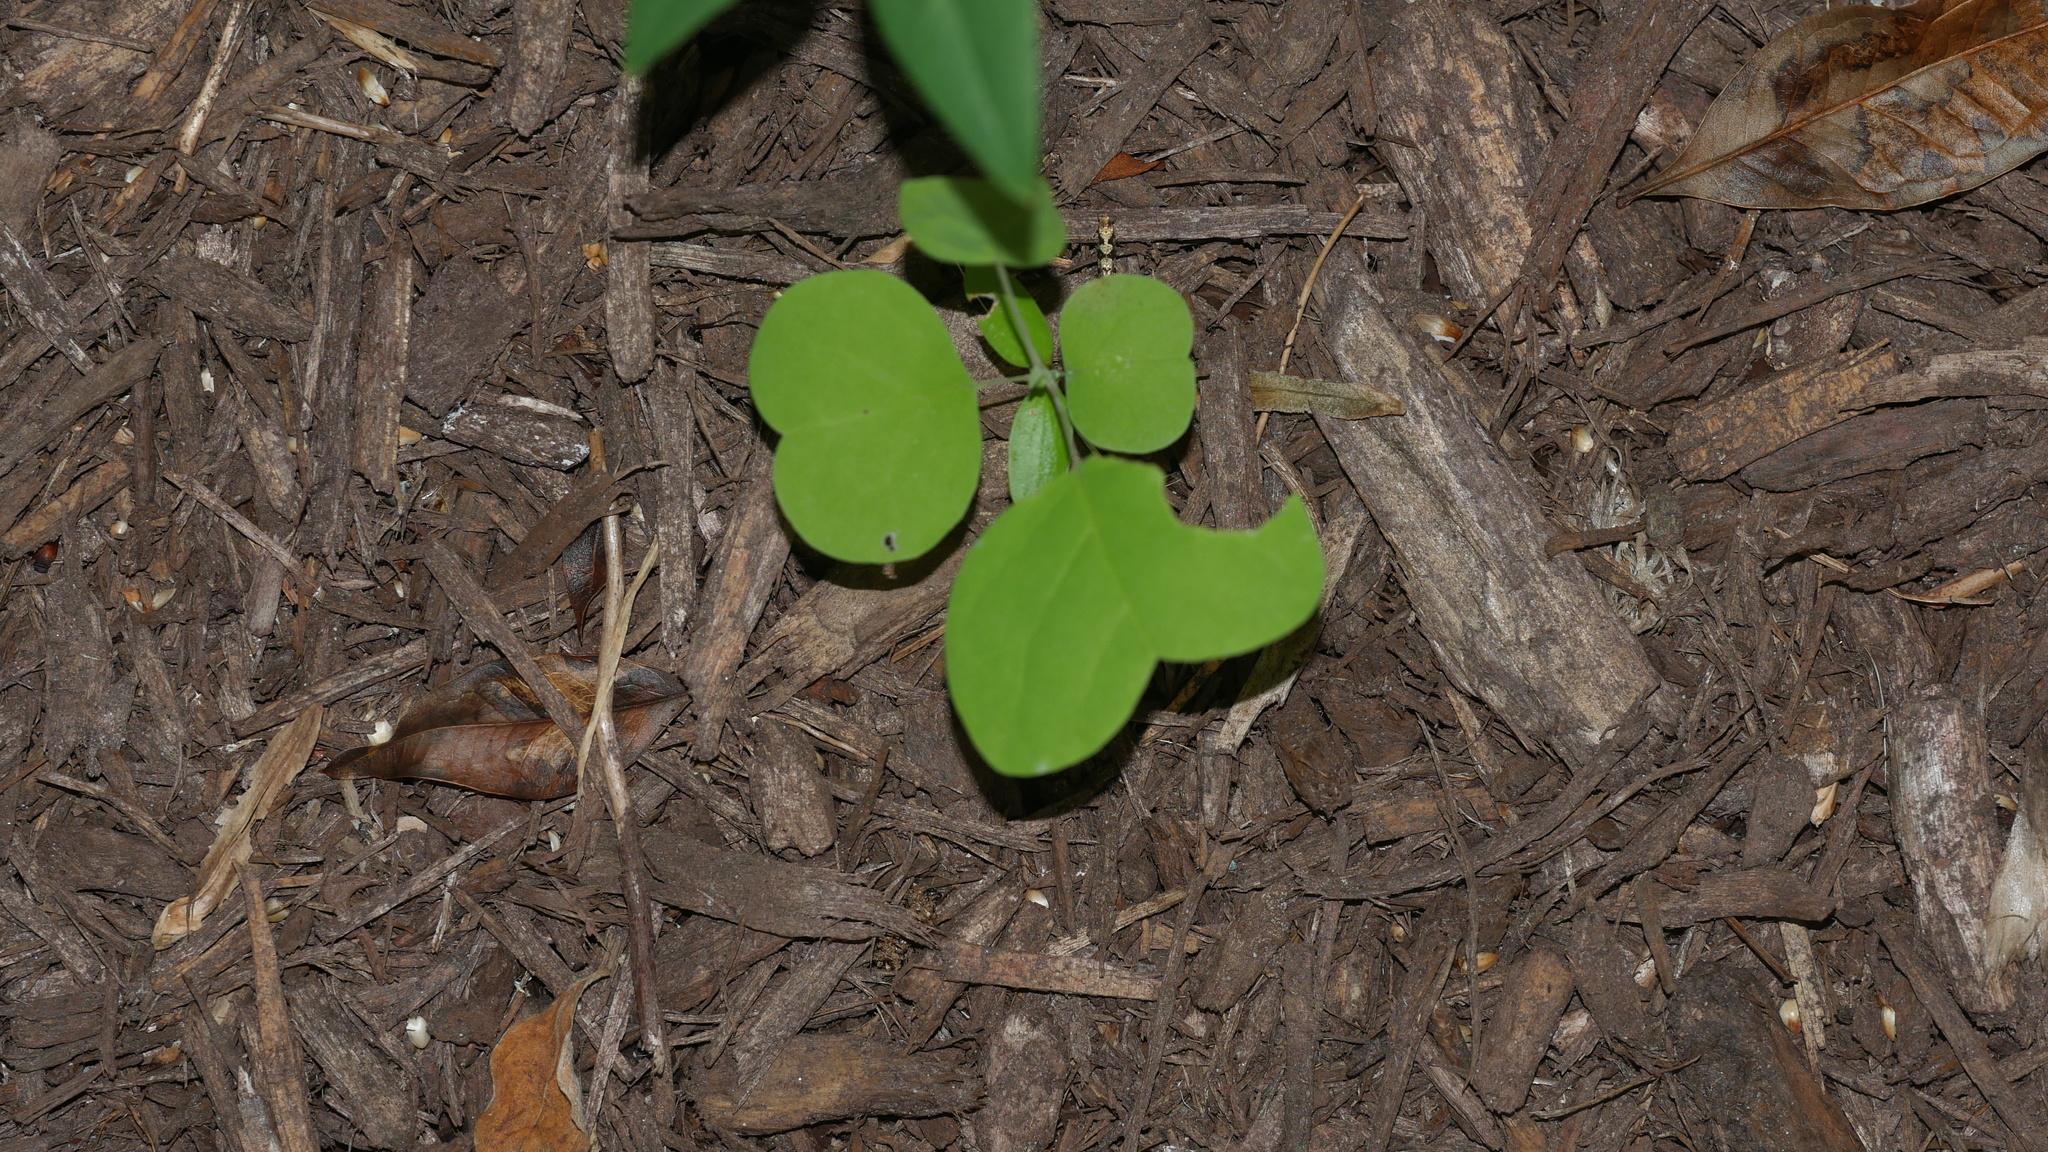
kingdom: Plantae
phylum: Tracheophyta
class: Magnoliopsida
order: Magnoliales
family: Magnoliaceae
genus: Liriodendron
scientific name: Liriodendron tulipifera
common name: Tulip tree
